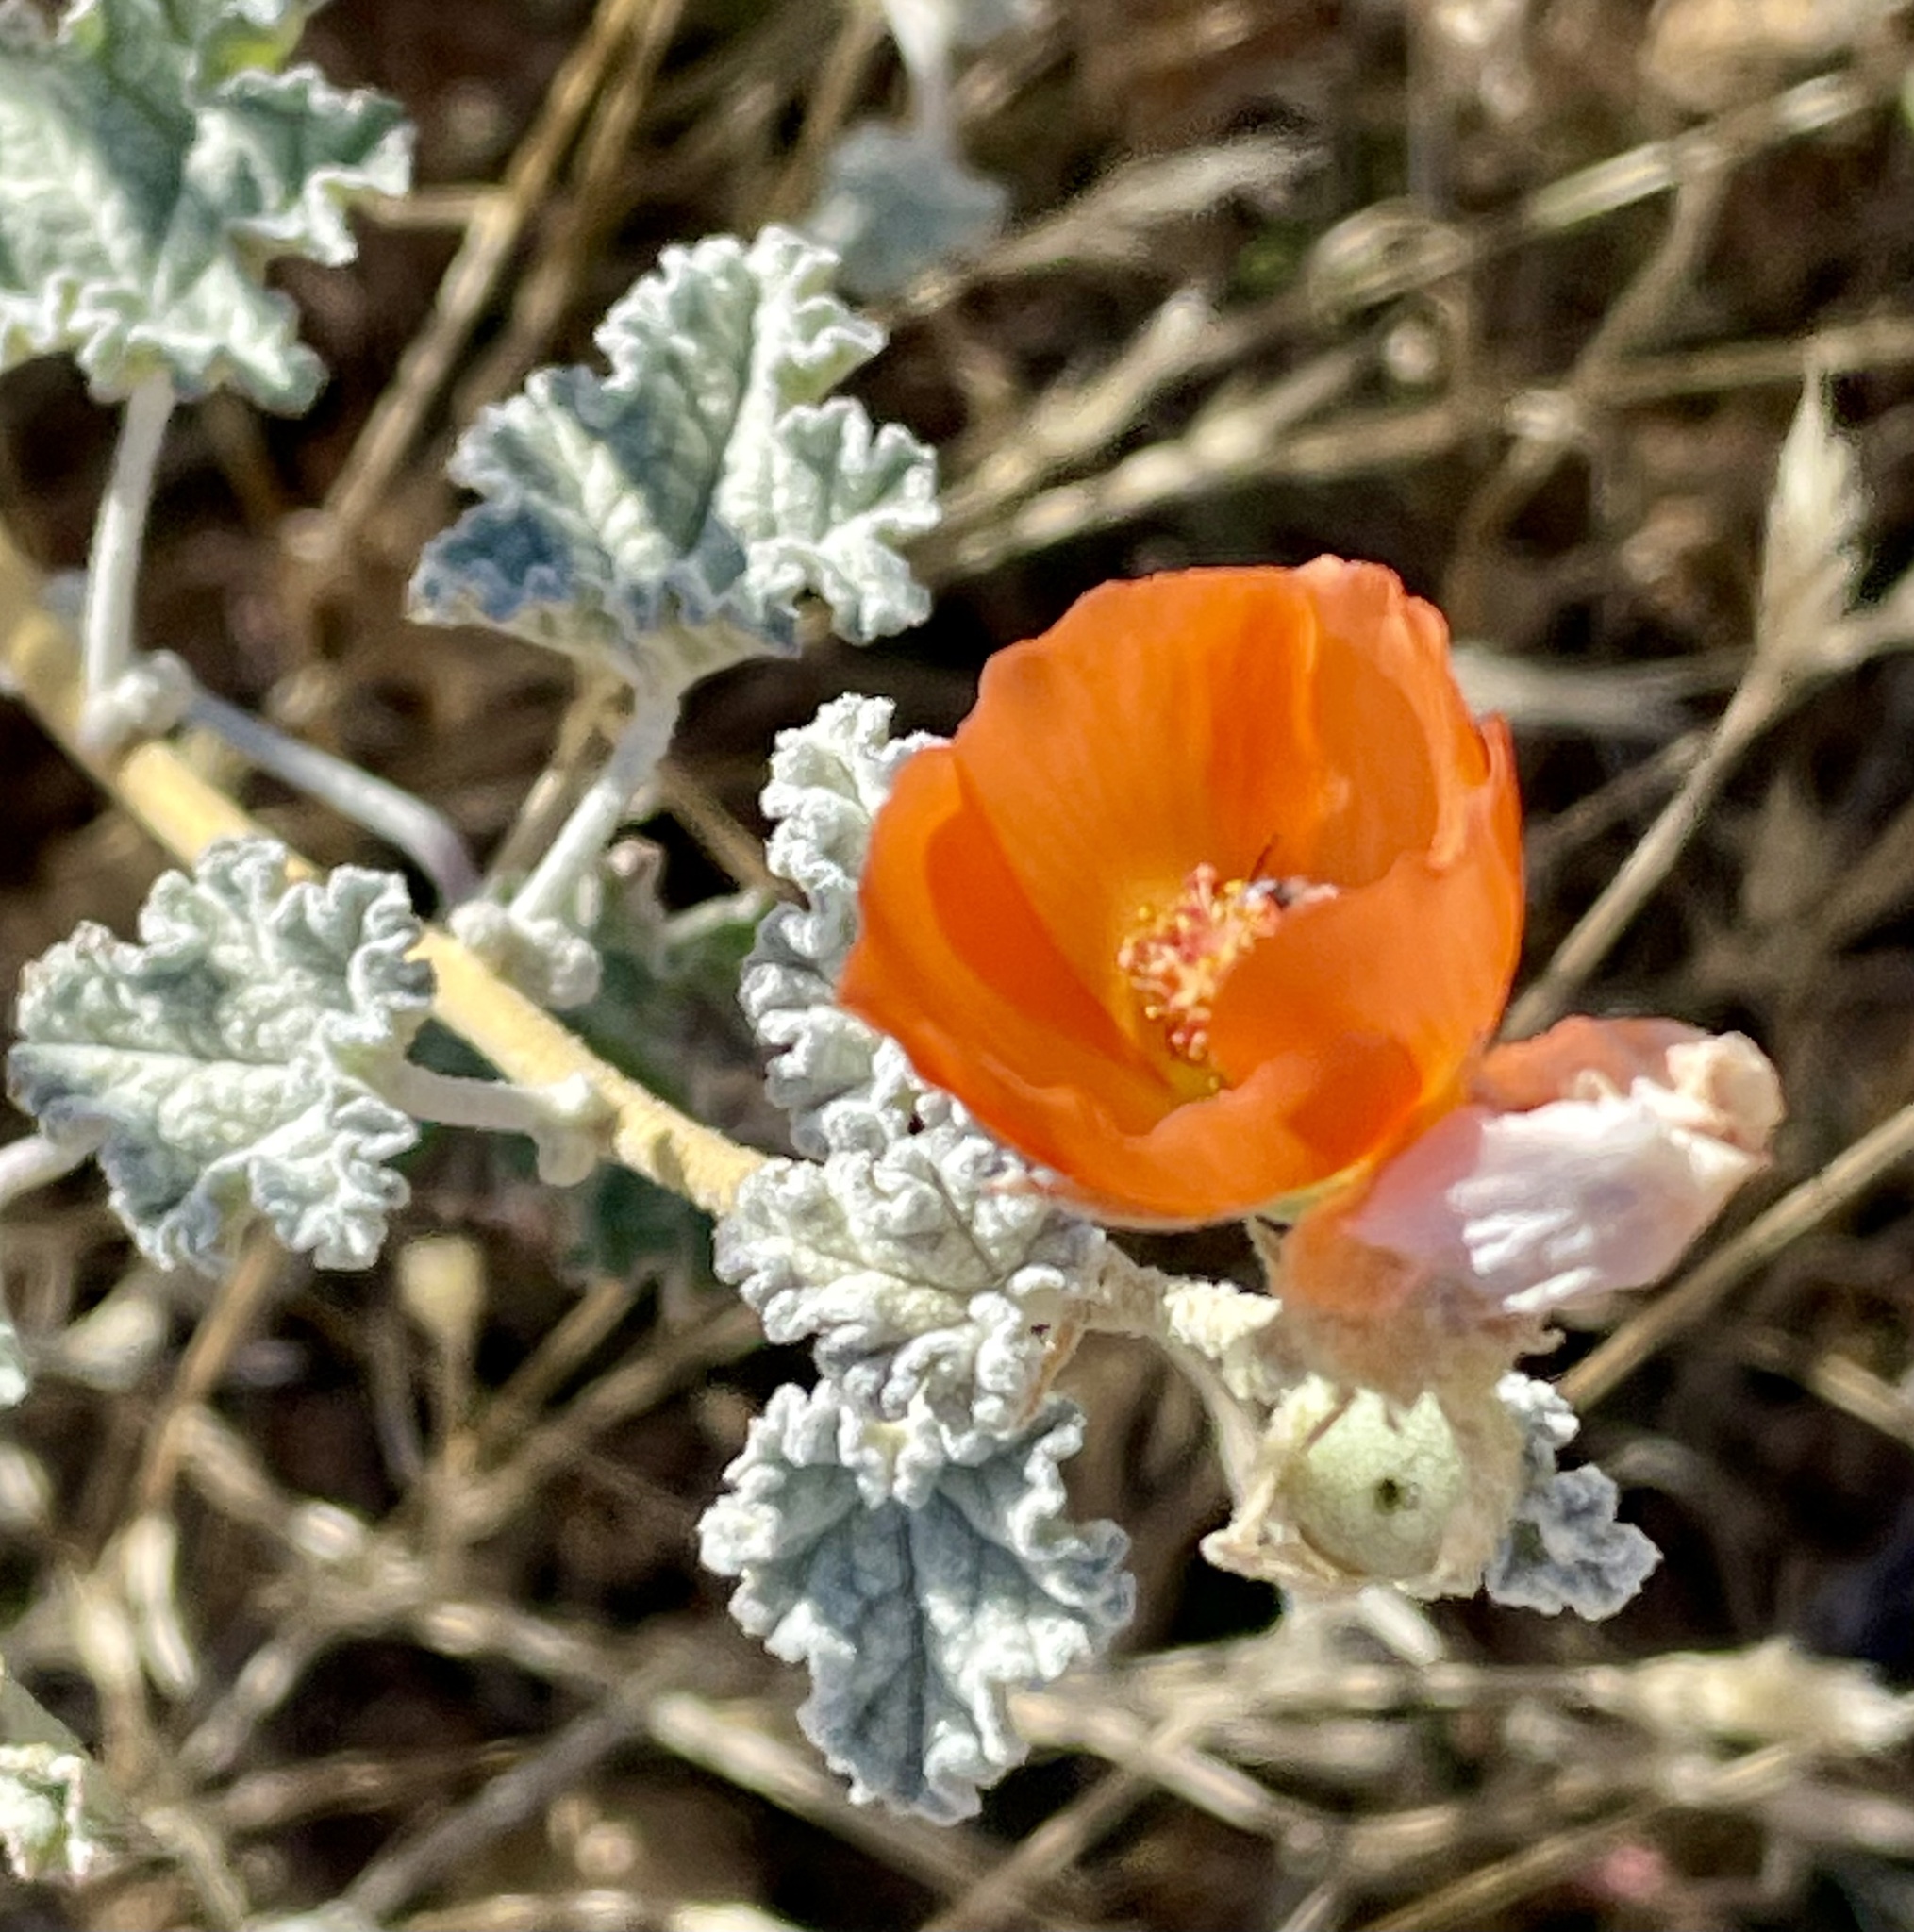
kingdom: Plantae
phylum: Tracheophyta
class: Magnoliopsida
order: Malvales
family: Malvaceae
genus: Sphaeralcea
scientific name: Sphaeralcea ambigua
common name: Apricot globe-mallow
